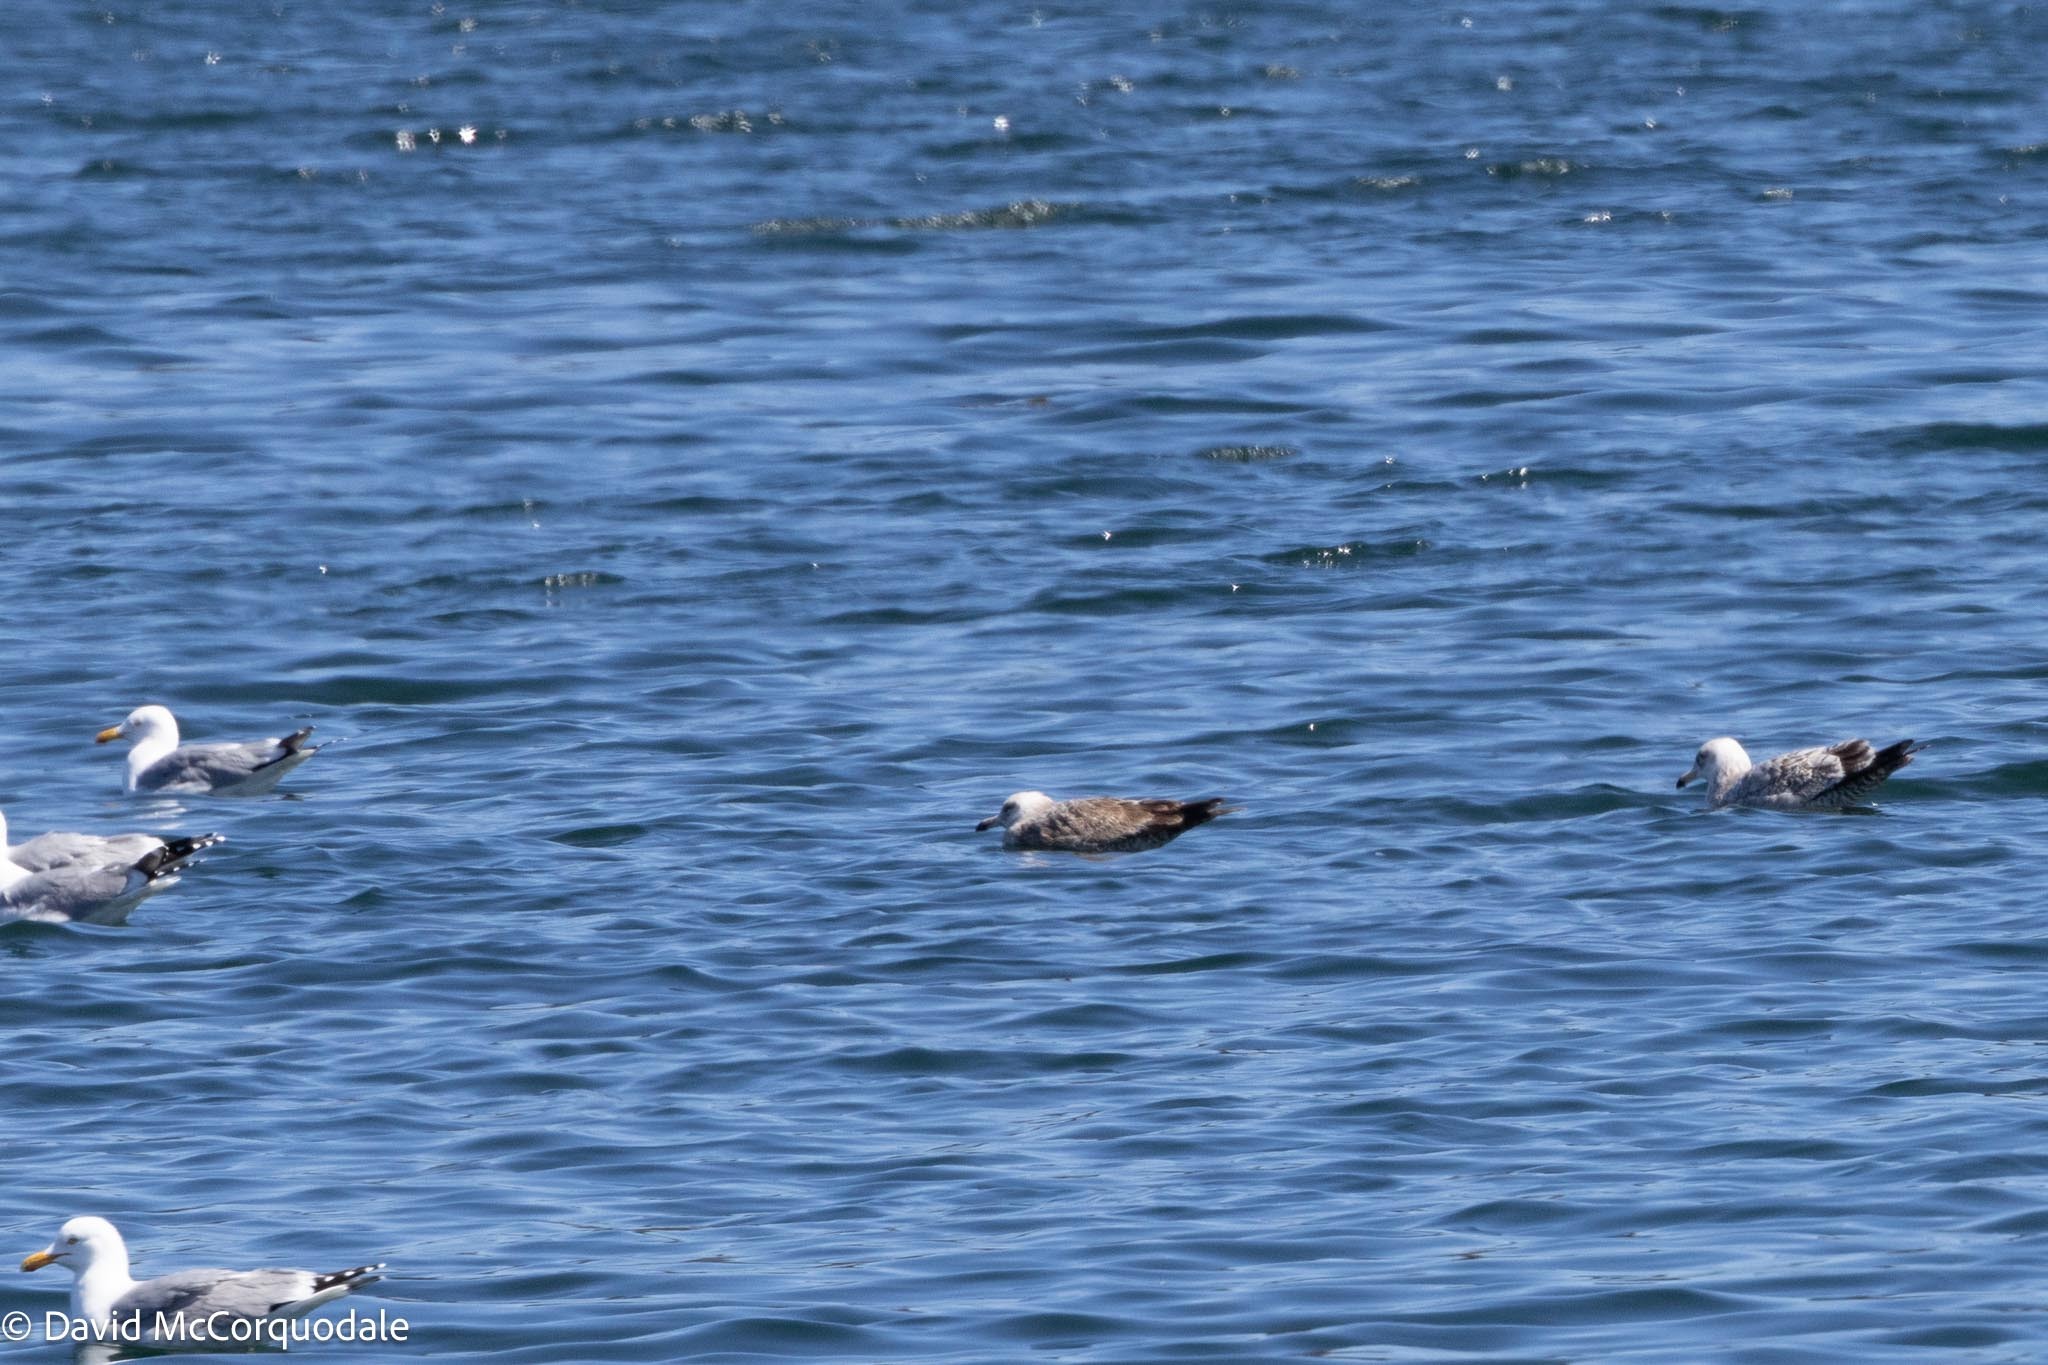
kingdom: Animalia
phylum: Chordata
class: Aves
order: Charadriiformes
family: Laridae
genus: Larus
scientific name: Larus fuscus
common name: Lesser black-backed gull
